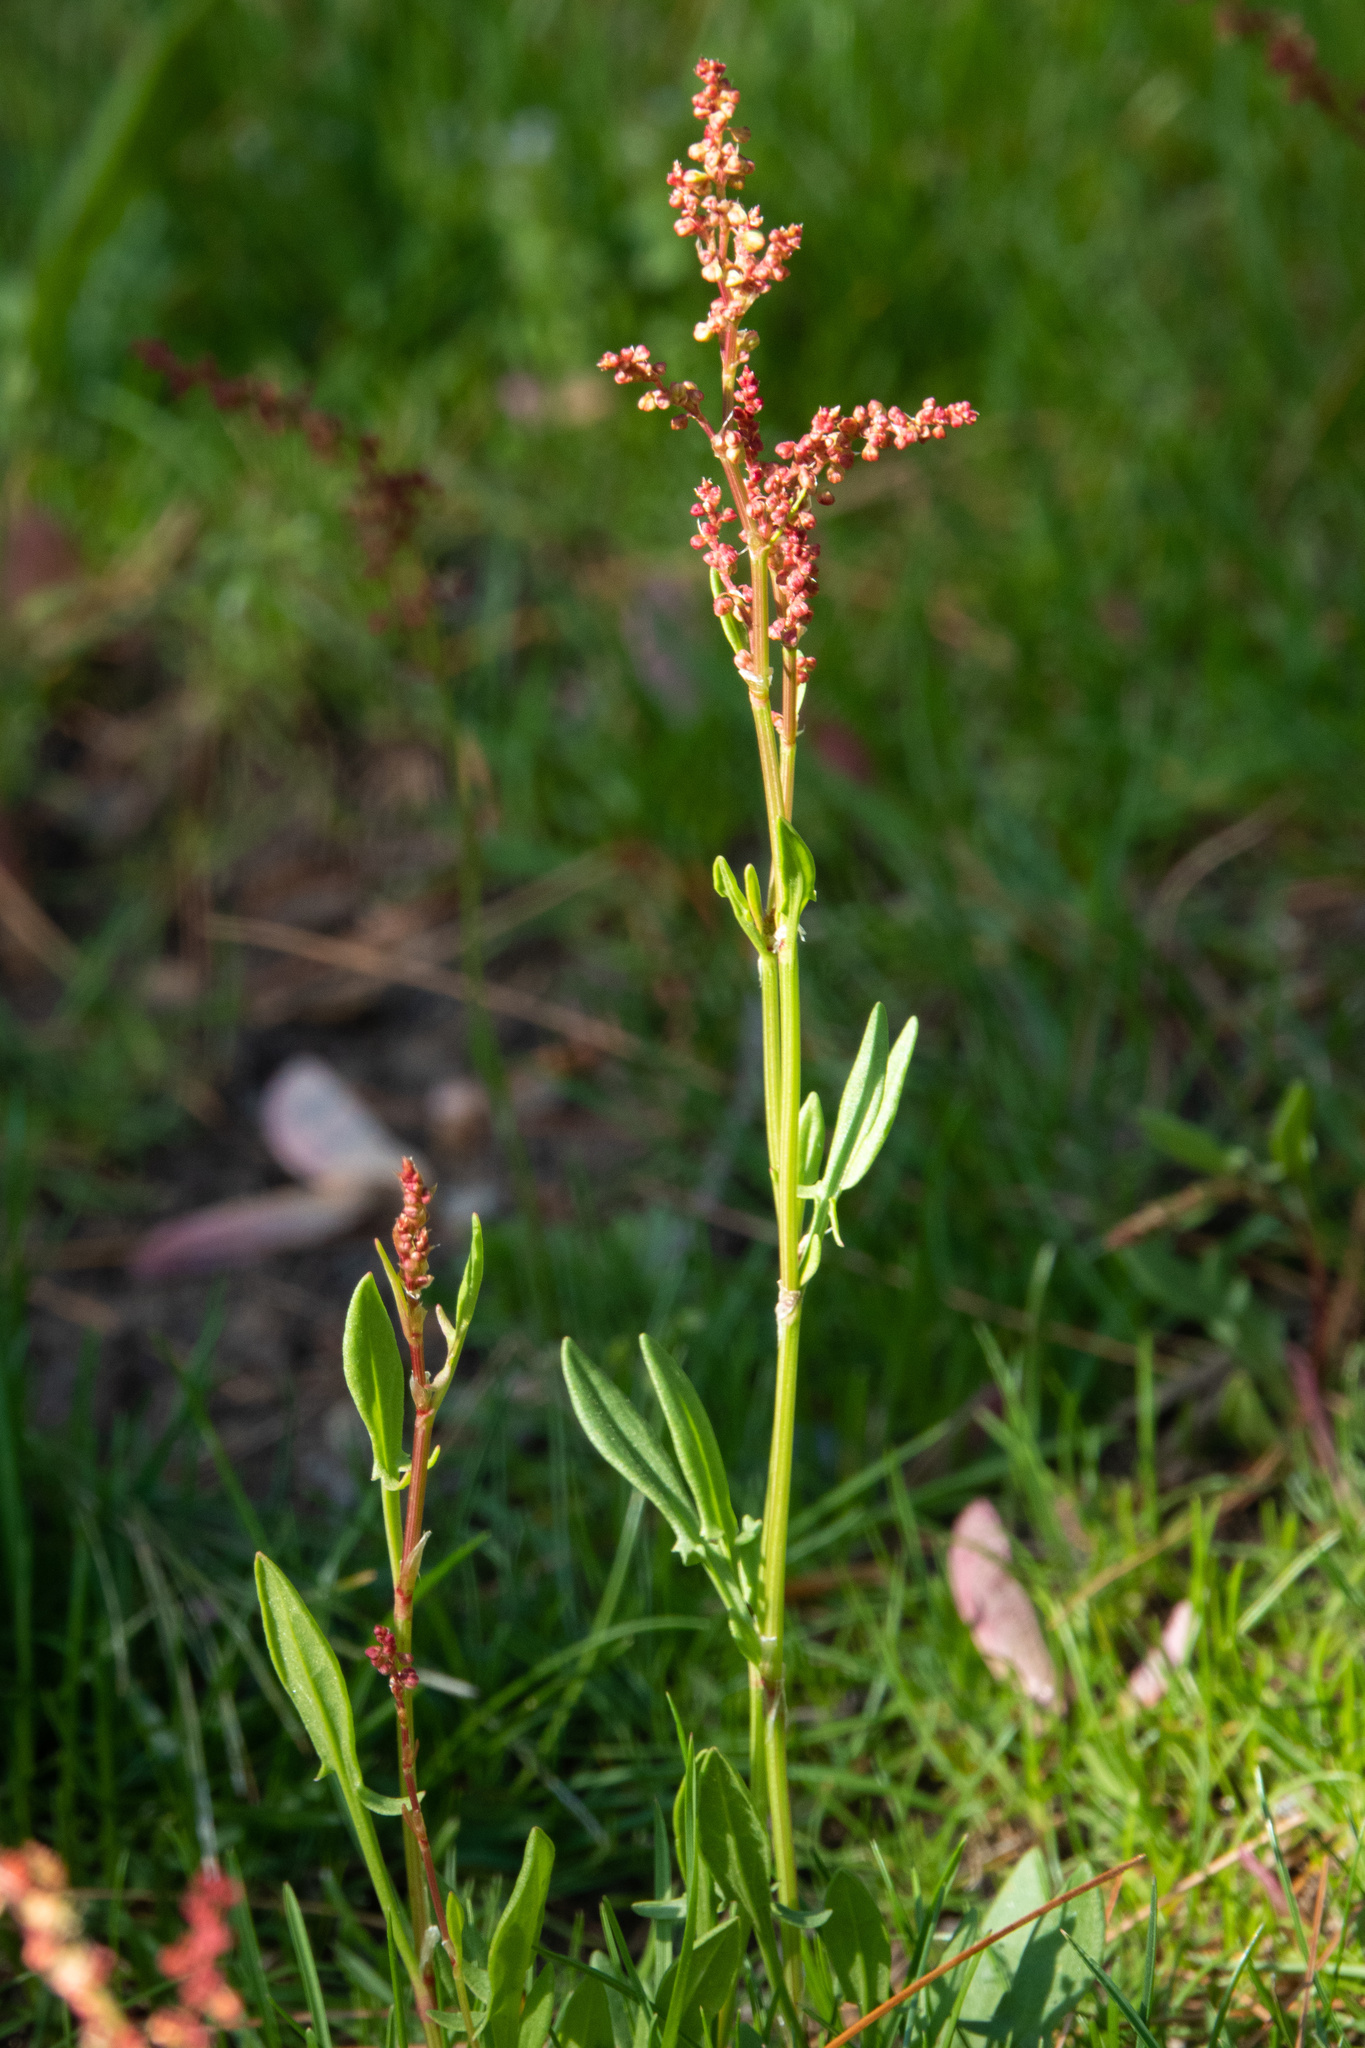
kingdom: Plantae
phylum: Tracheophyta
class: Magnoliopsida
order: Caryophyllales
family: Polygonaceae
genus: Rumex
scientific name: Rumex acetosella
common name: Common sheep sorrel
